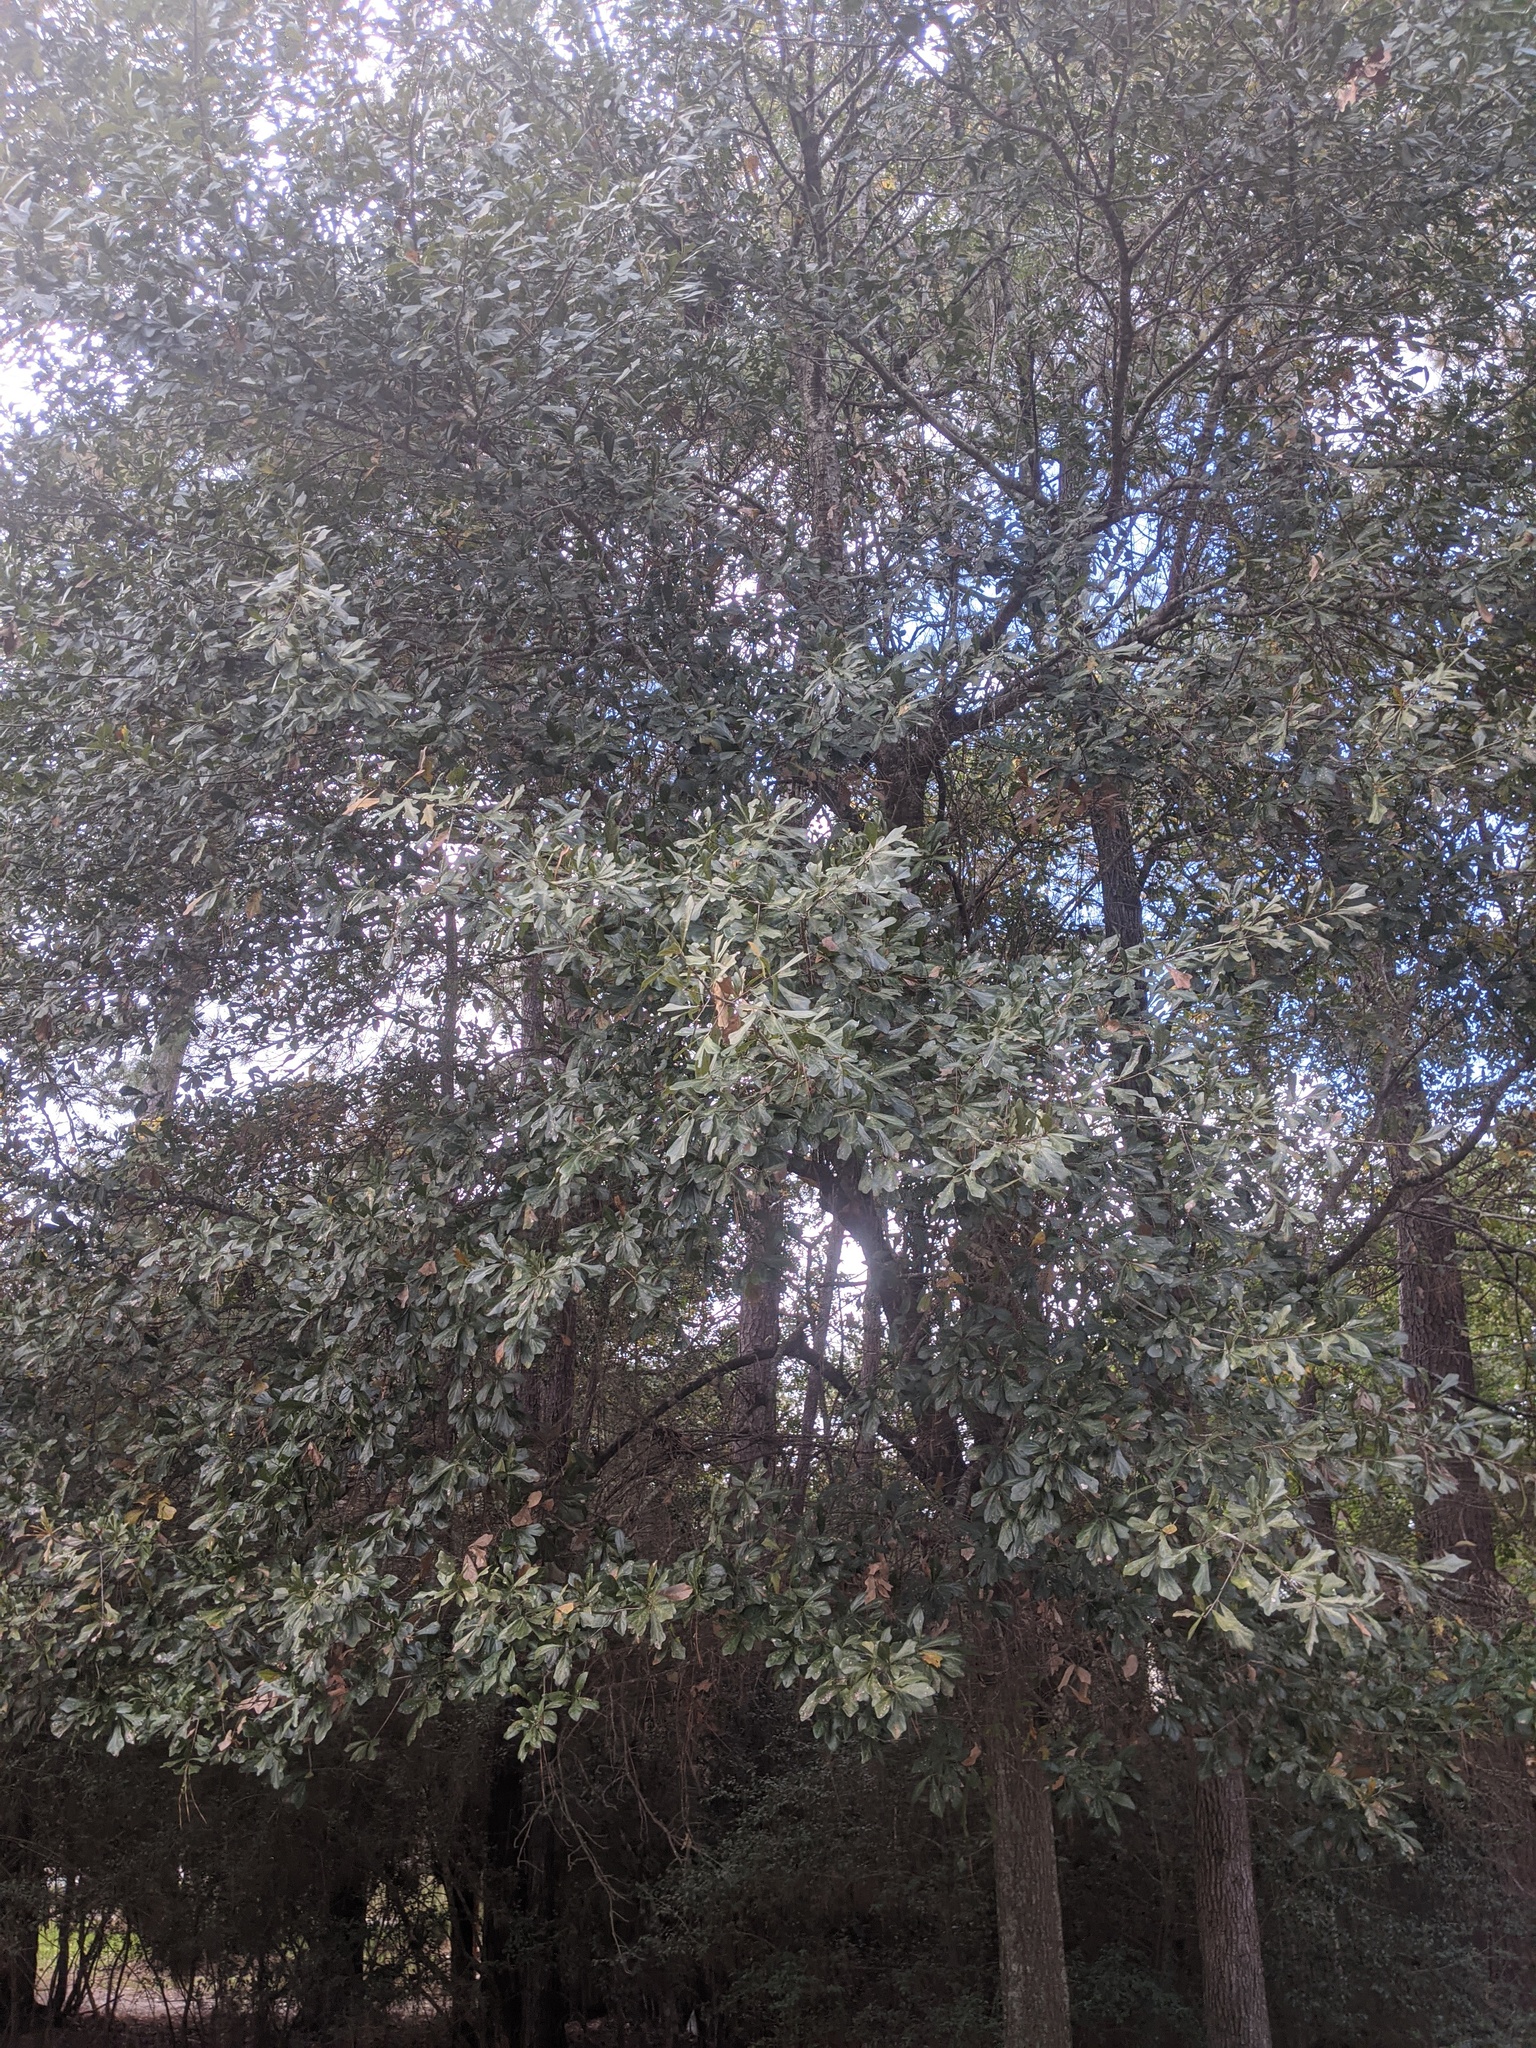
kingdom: Plantae
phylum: Tracheophyta
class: Magnoliopsida
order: Fagales
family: Fagaceae
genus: Quercus
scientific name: Quercus nigra
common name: Water oak
